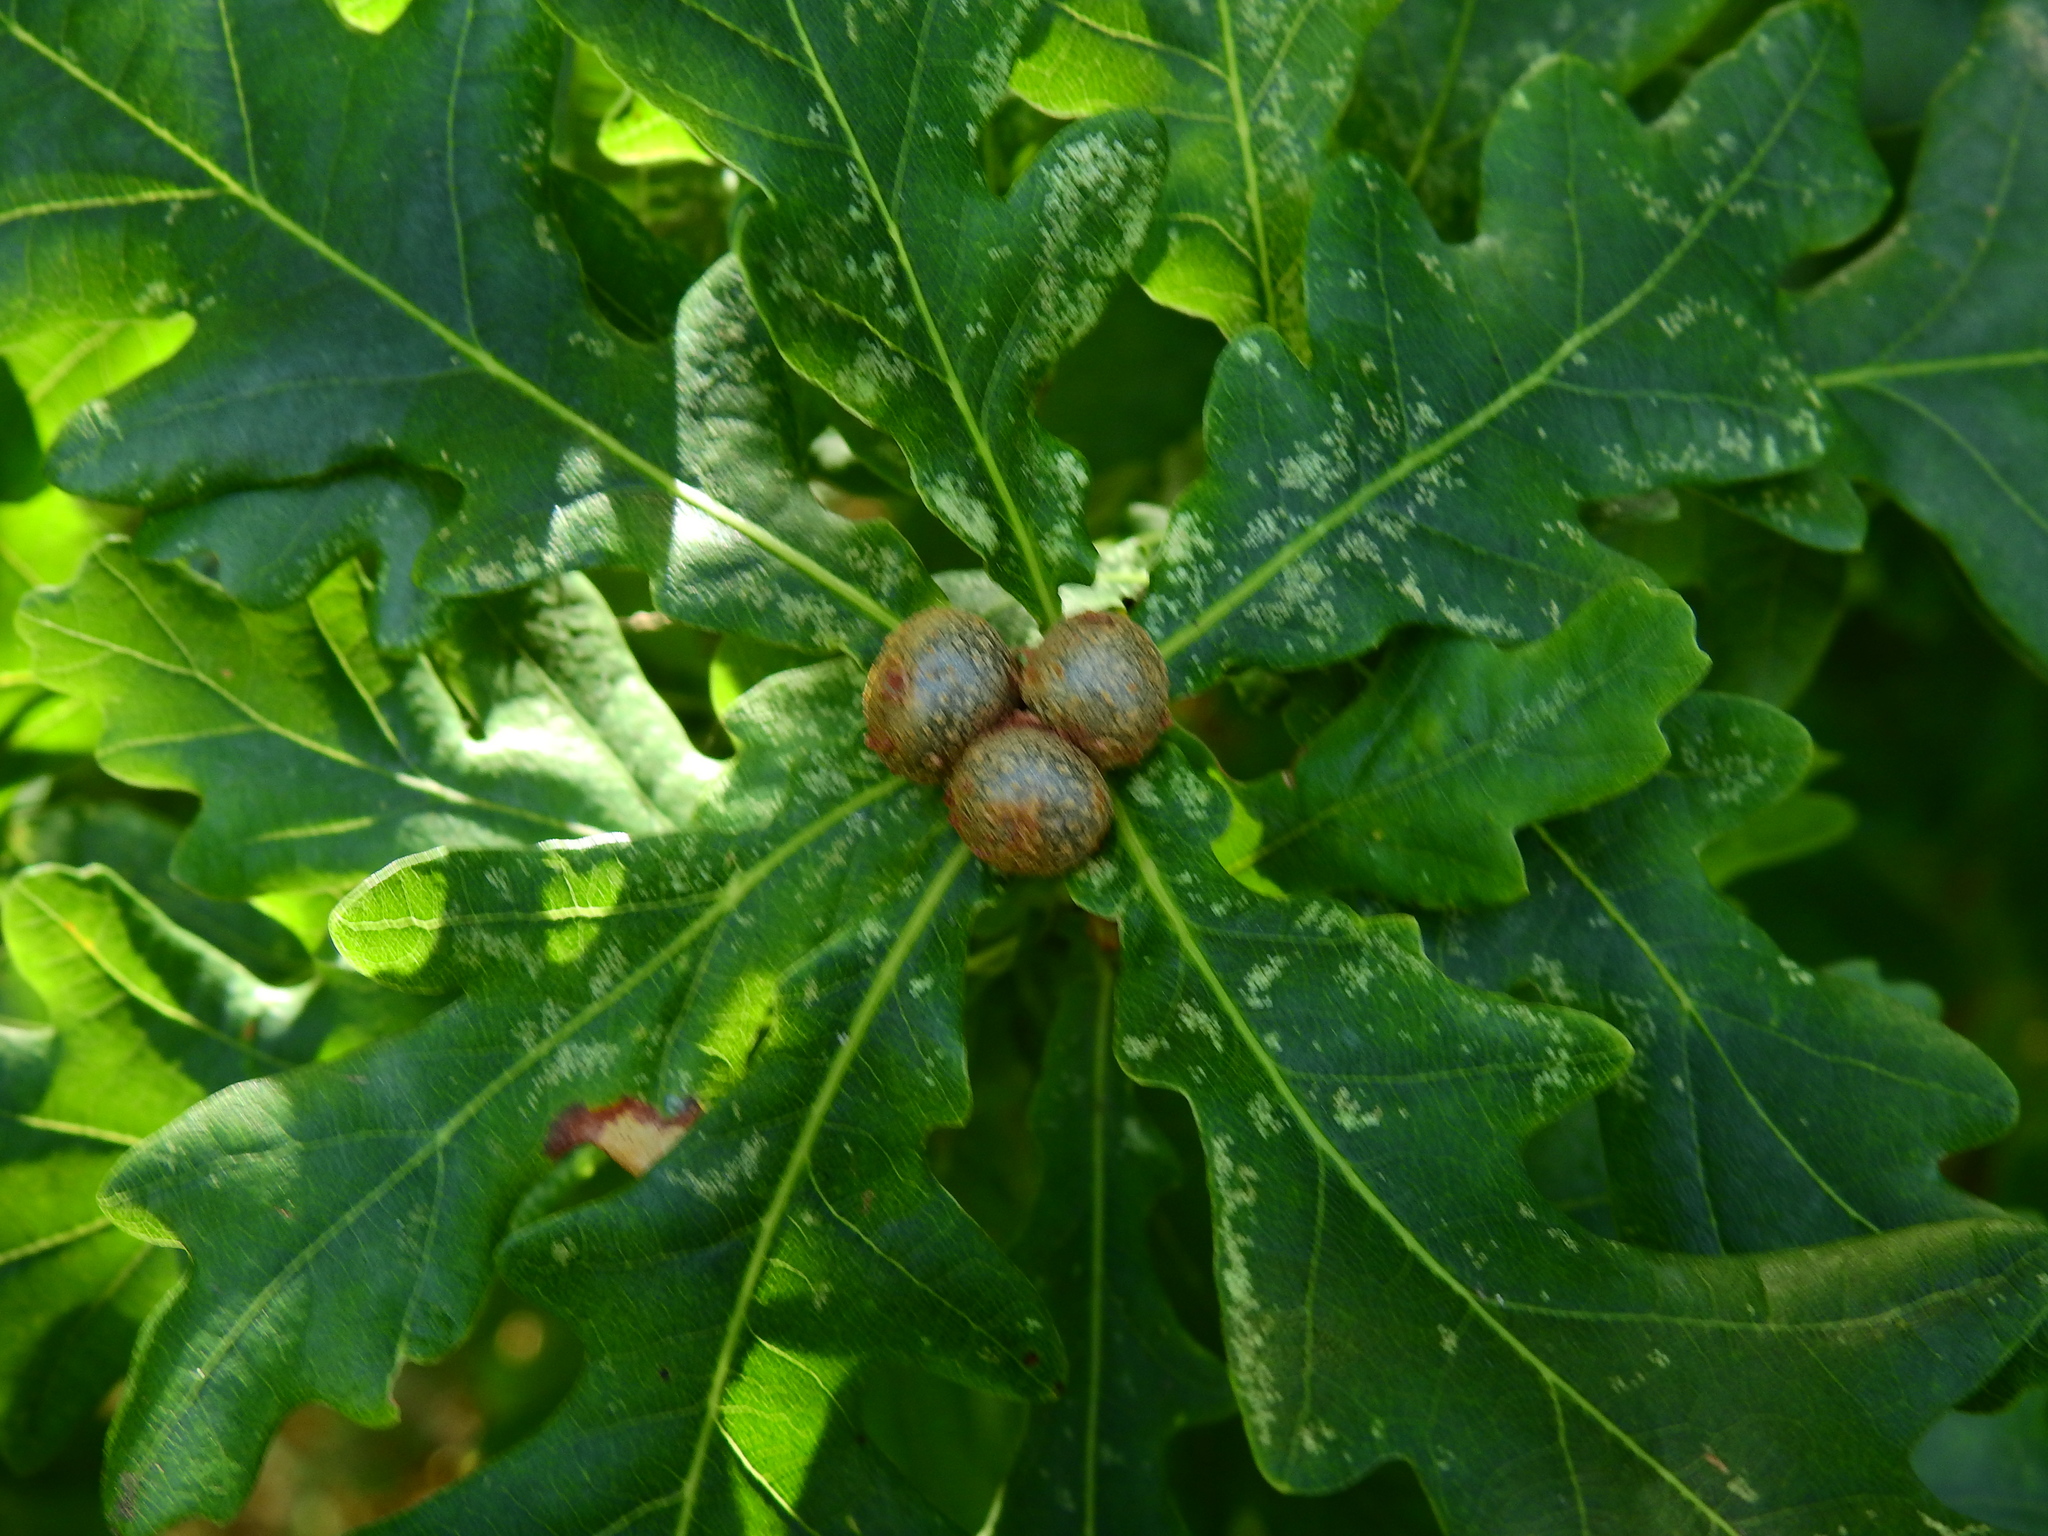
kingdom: Animalia
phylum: Arthropoda
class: Insecta
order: Hymenoptera
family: Cynipidae
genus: Andricus
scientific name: Andricus lignicolus
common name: Cola-nut gall
